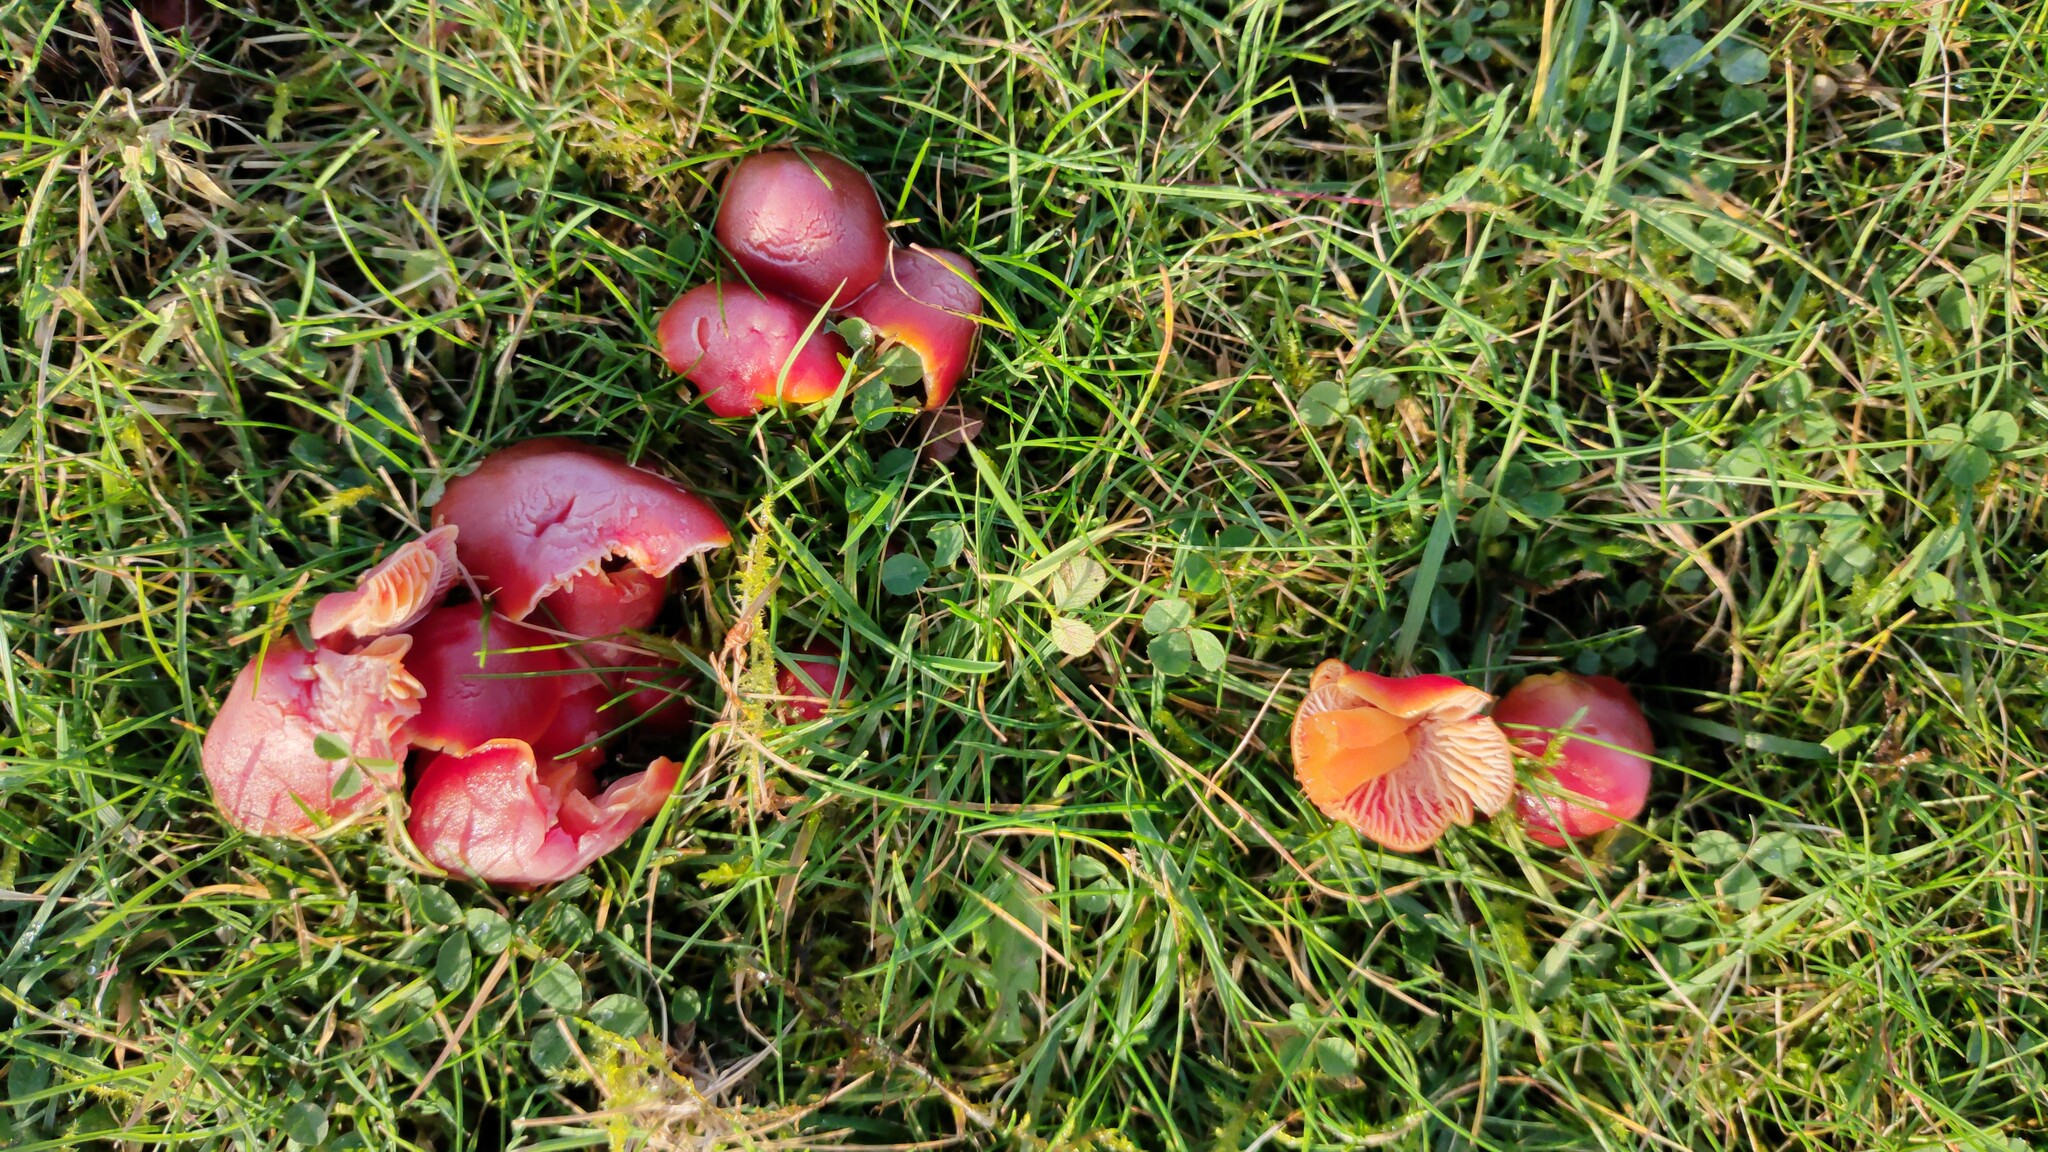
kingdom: Fungi
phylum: Basidiomycota
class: Agaricomycetes
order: Agaricales
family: Hygrophoraceae
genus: Hygrocybe
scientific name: Hygrocybe coccinea
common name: Scarlet hood
